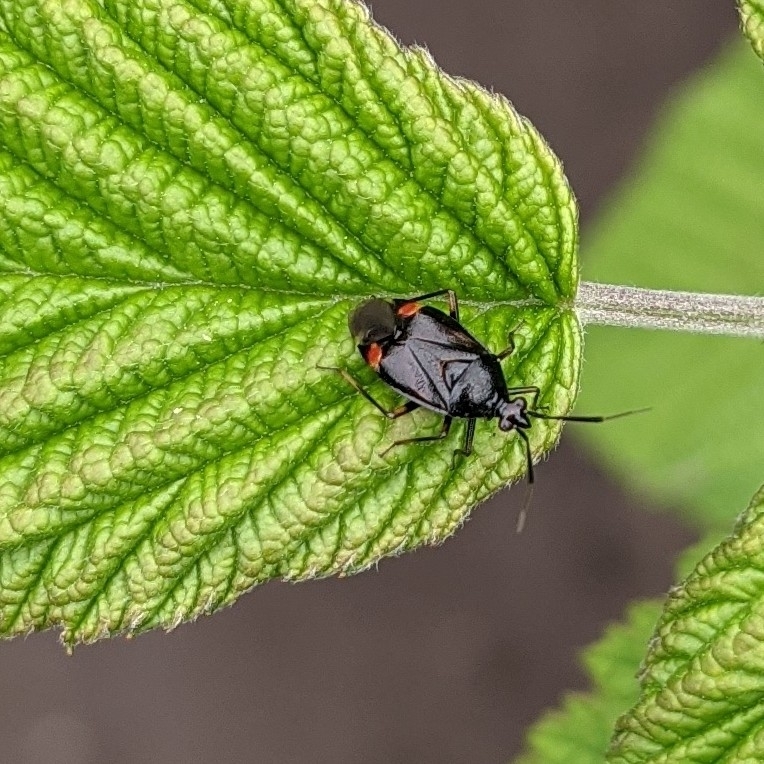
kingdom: Animalia
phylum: Arthropoda
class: Insecta
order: Hemiptera
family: Miridae
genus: Deraeocoris
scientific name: Deraeocoris ruber
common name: Plant bug
